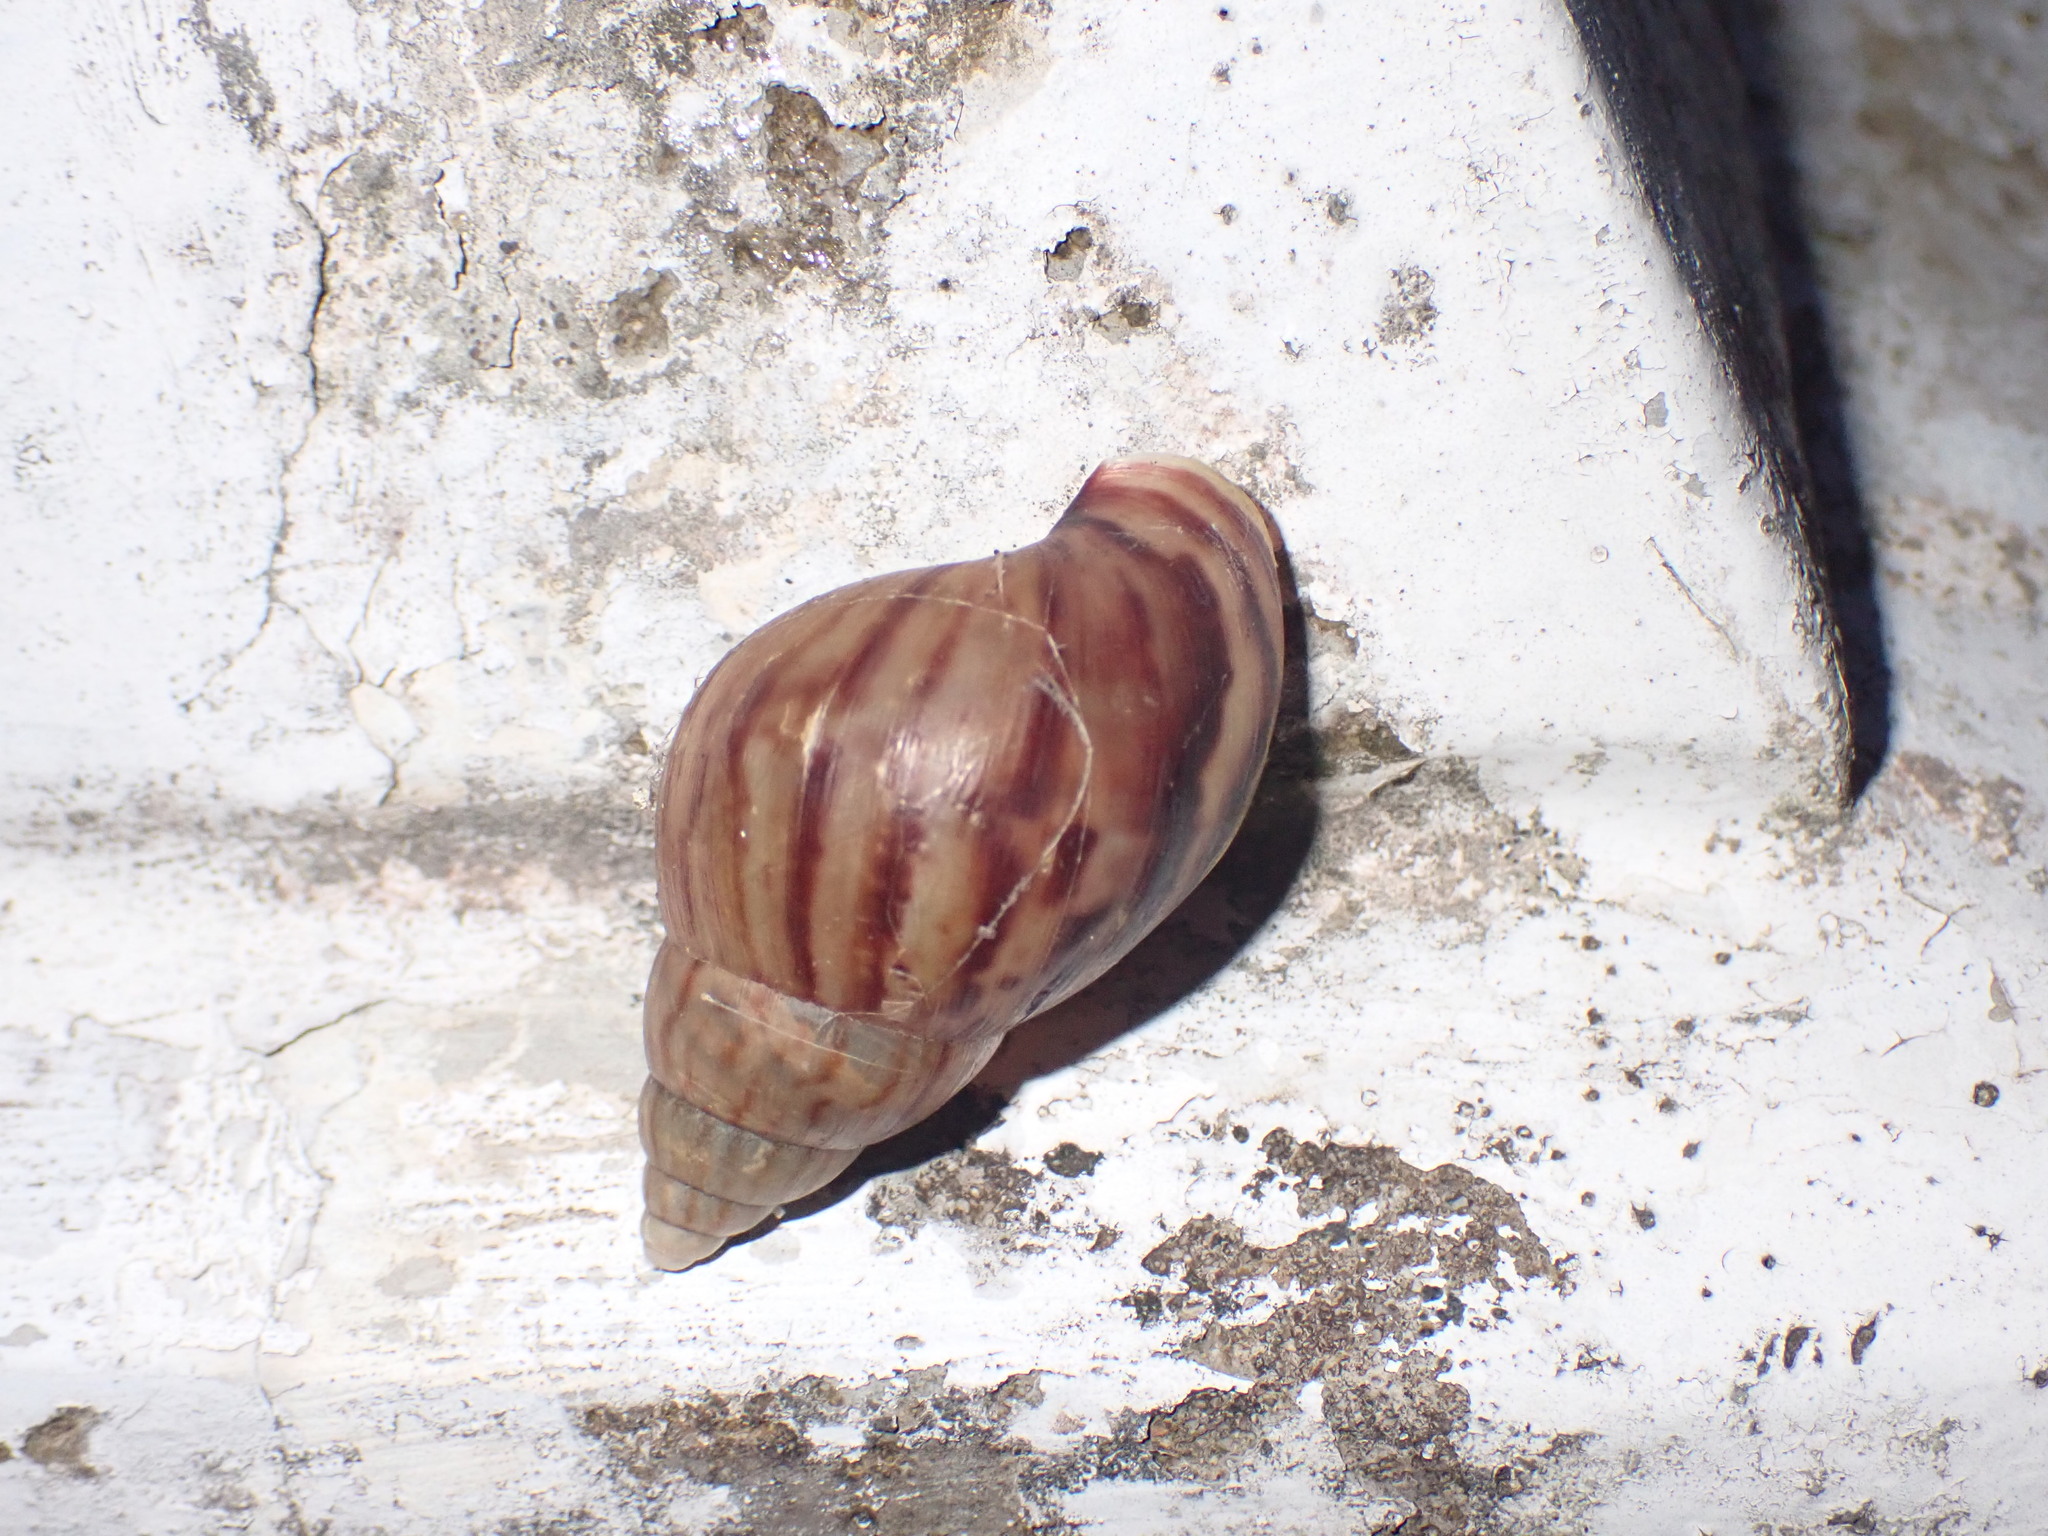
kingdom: Animalia
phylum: Mollusca
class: Gastropoda
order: Stylommatophora
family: Achatinidae
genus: Lissachatina
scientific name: Lissachatina fulica
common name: Giant african snail
